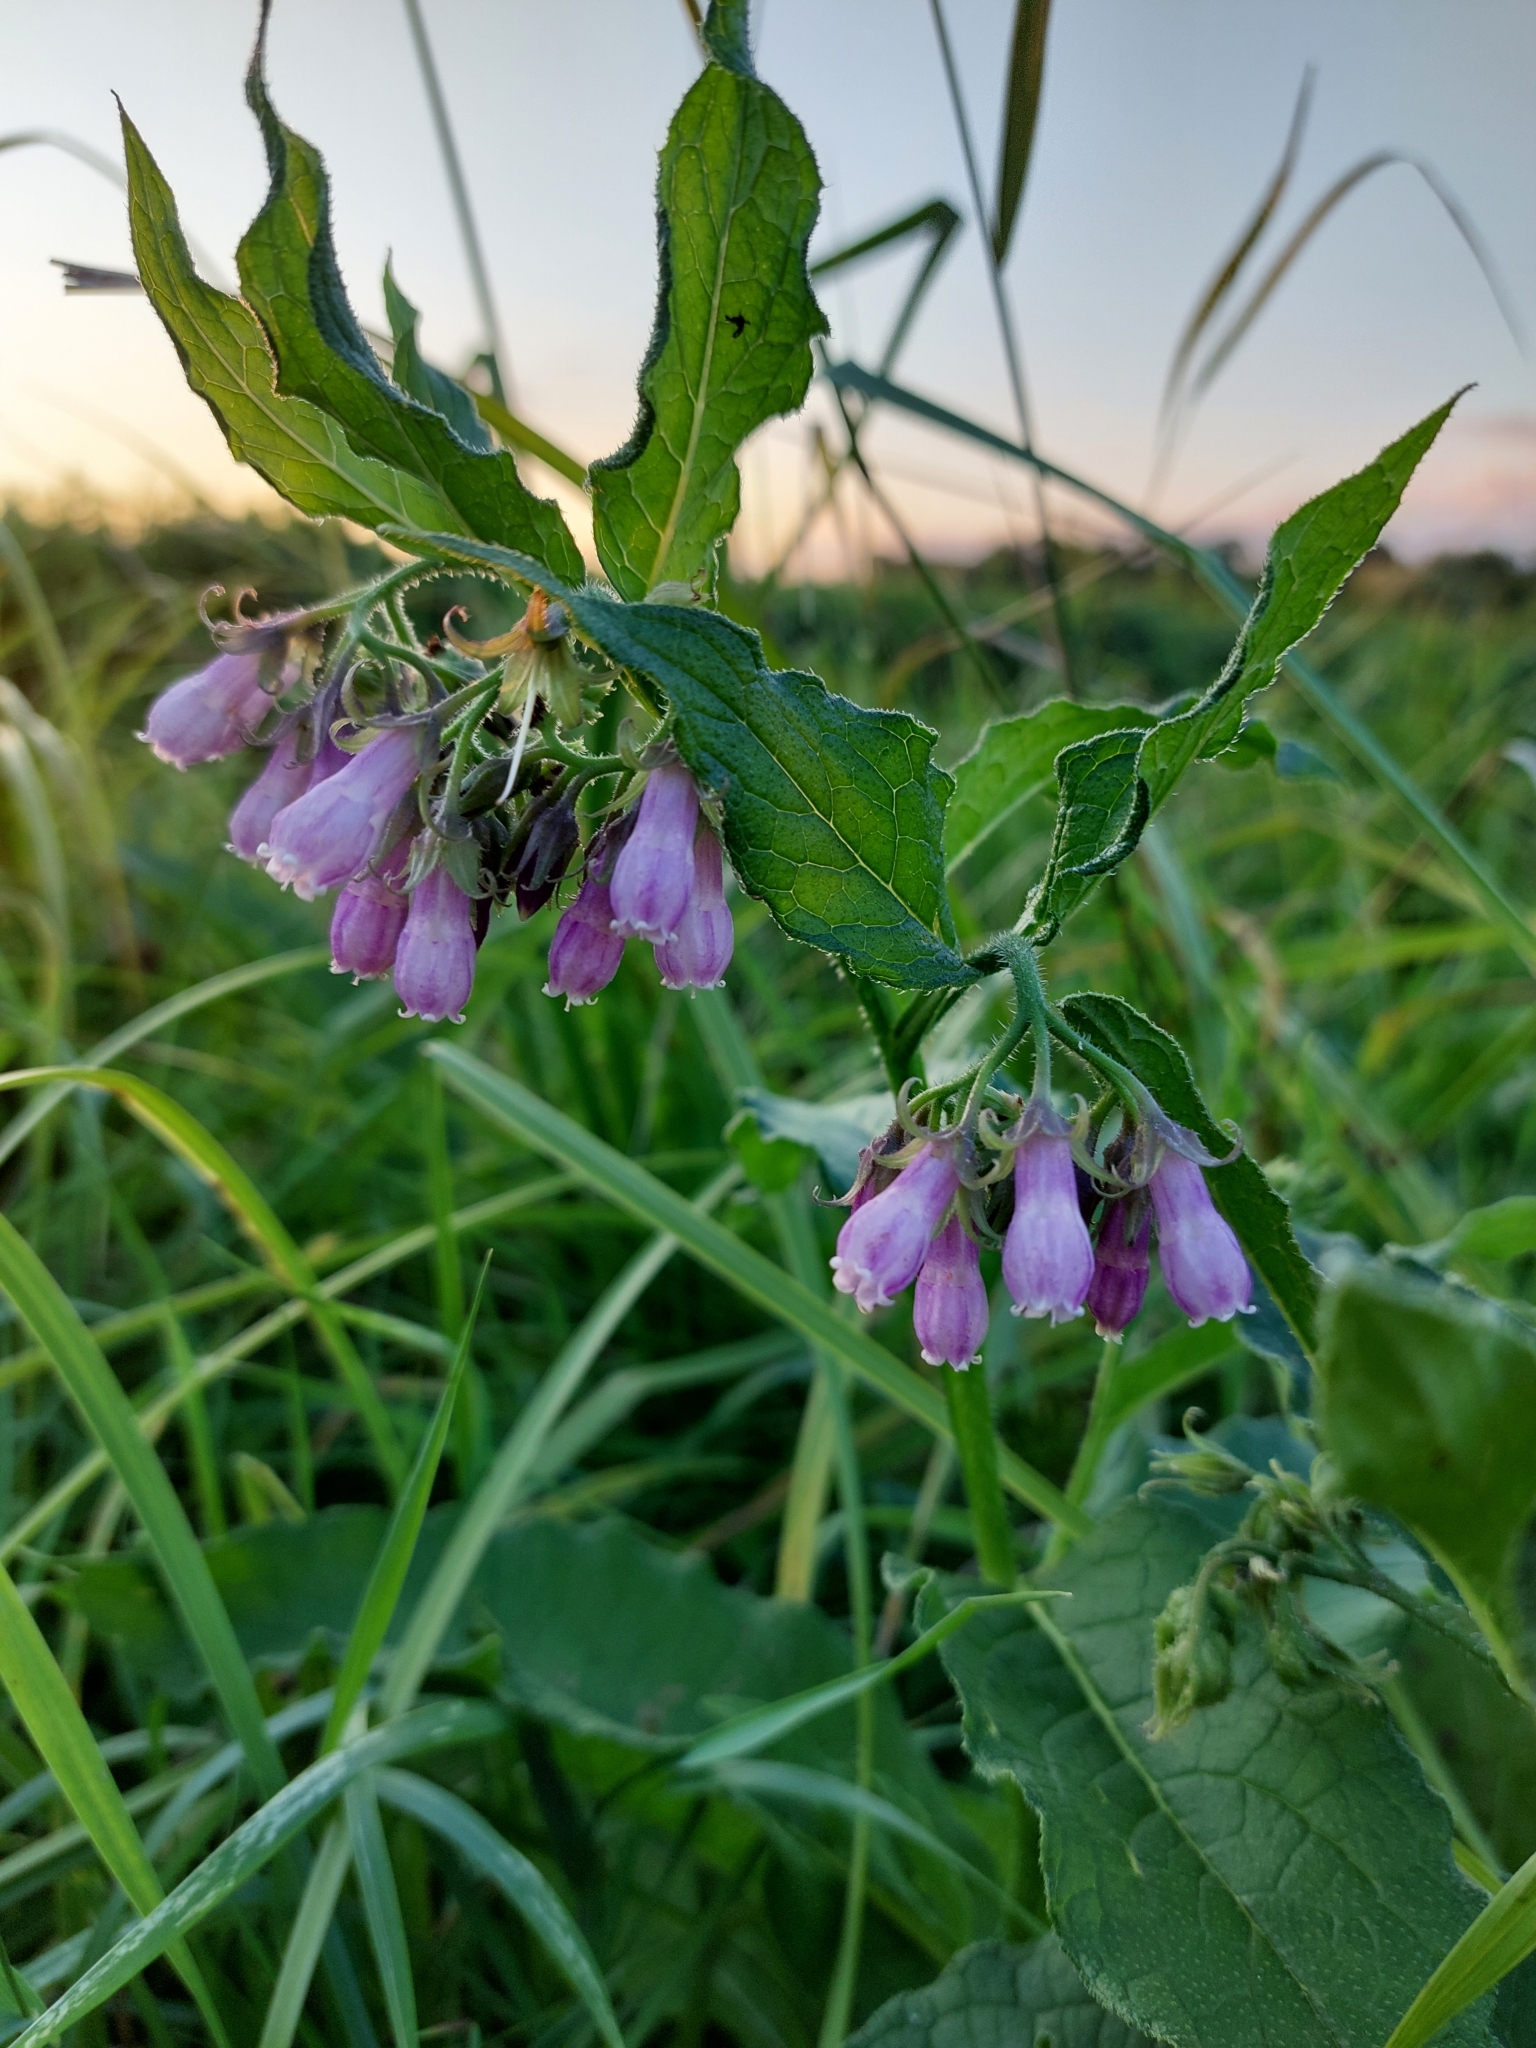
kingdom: Plantae
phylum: Tracheophyta
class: Magnoliopsida
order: Boraginales
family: Boraginaceae
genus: Symphytum
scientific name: Symphytum officinale
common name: Common comfrey
